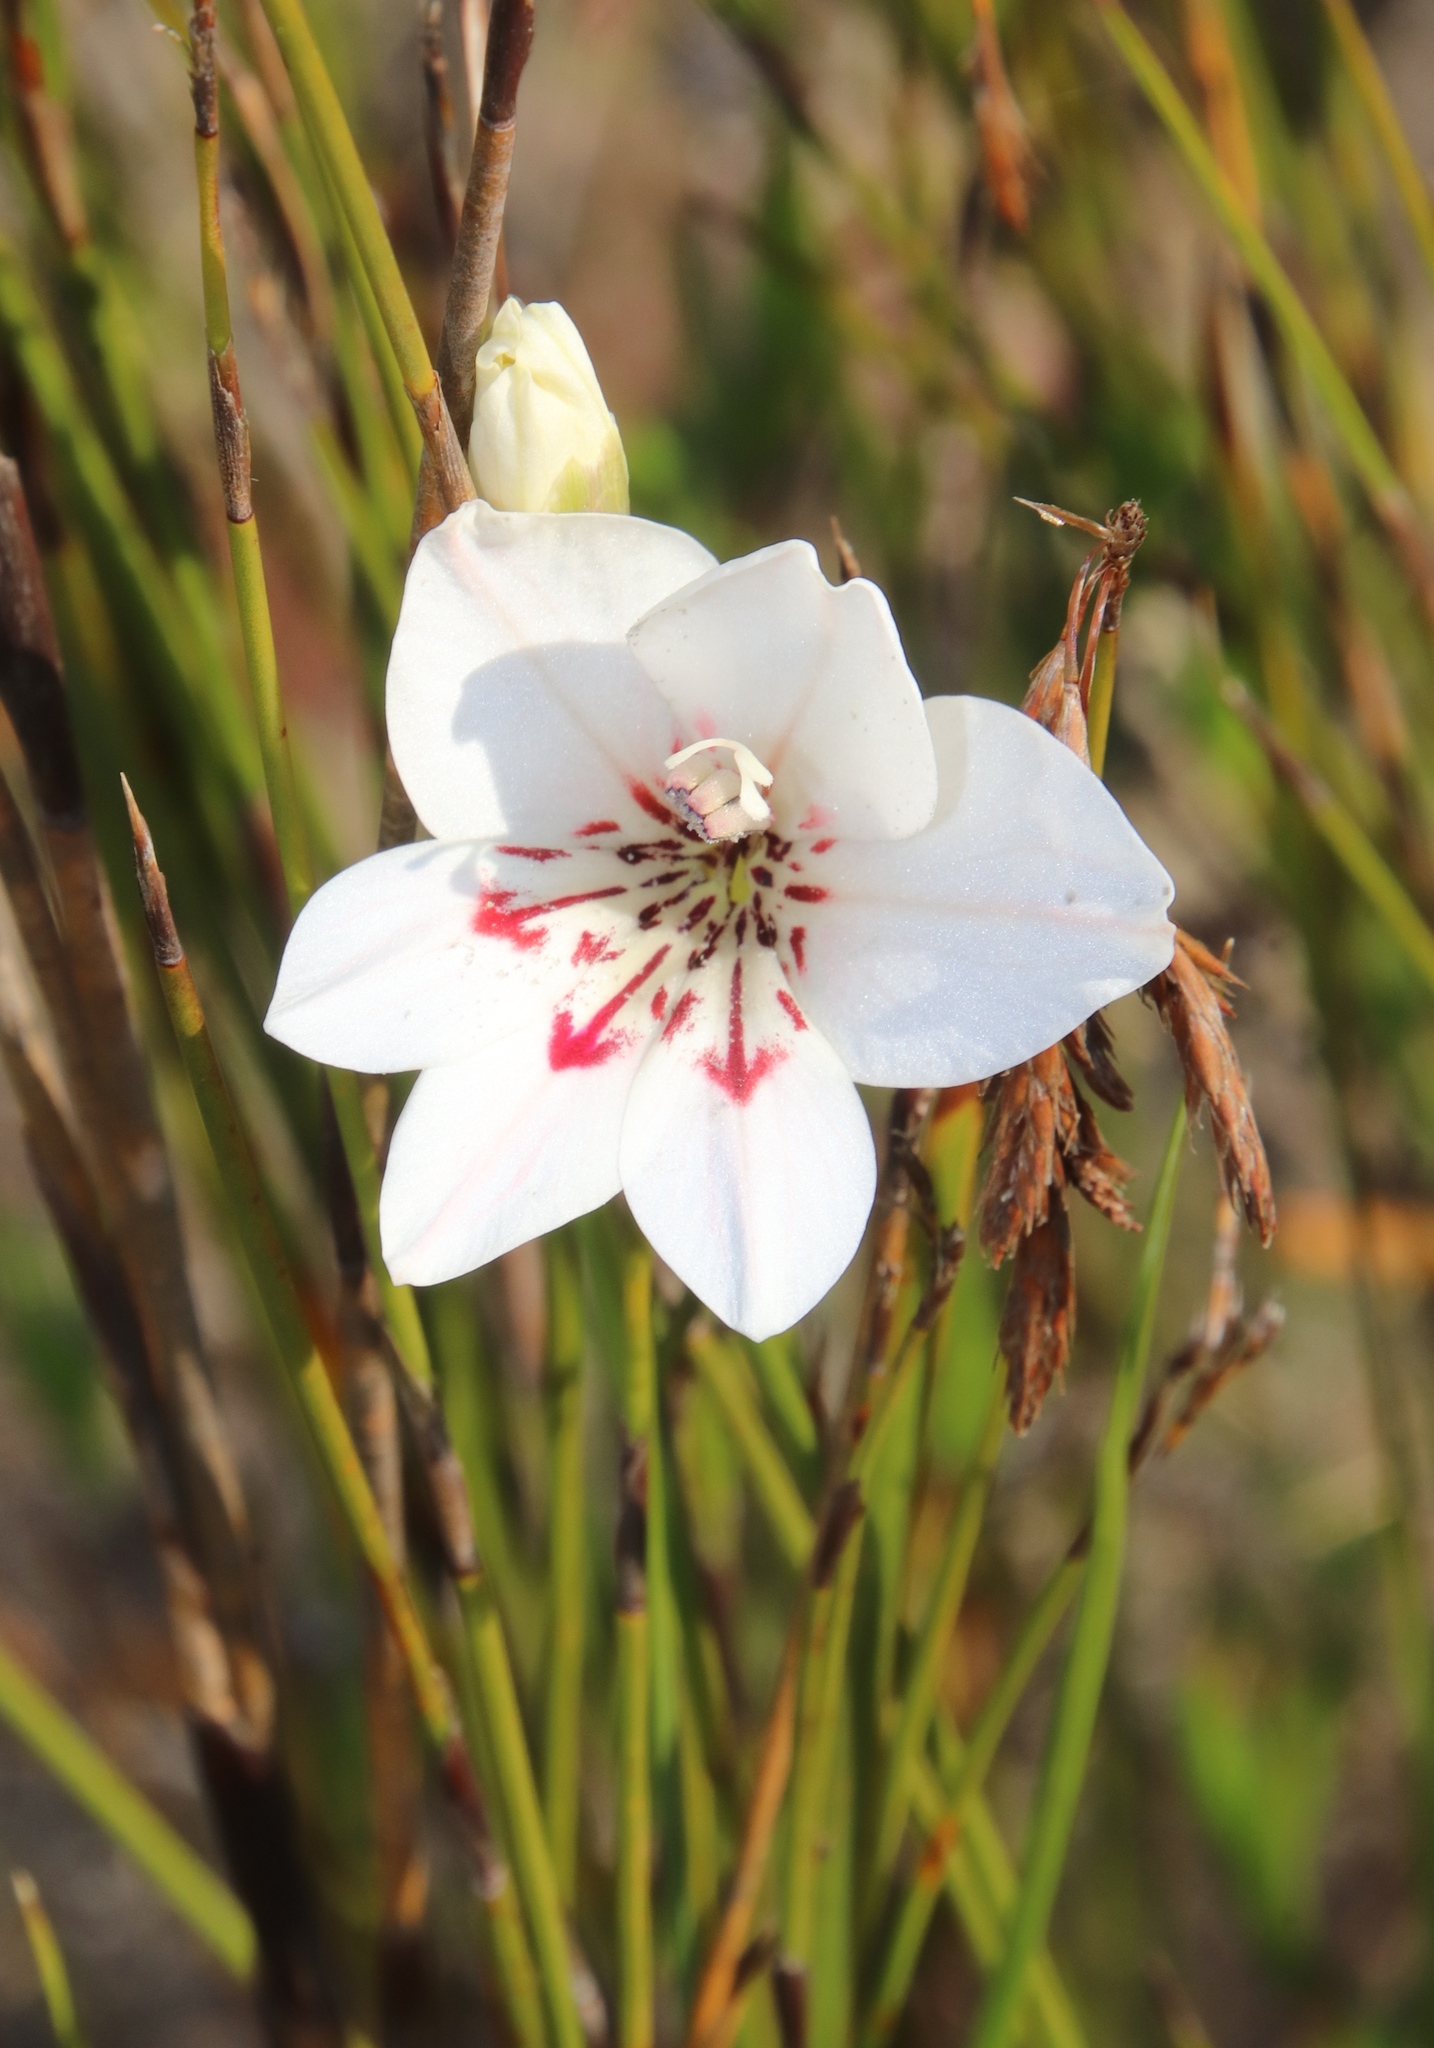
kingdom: Plantae
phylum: Tracheophyta
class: Liliopsida
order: Asparagales
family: Iridaceae
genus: Gladiolus
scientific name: Gladiolus debilis
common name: Painted-lady
